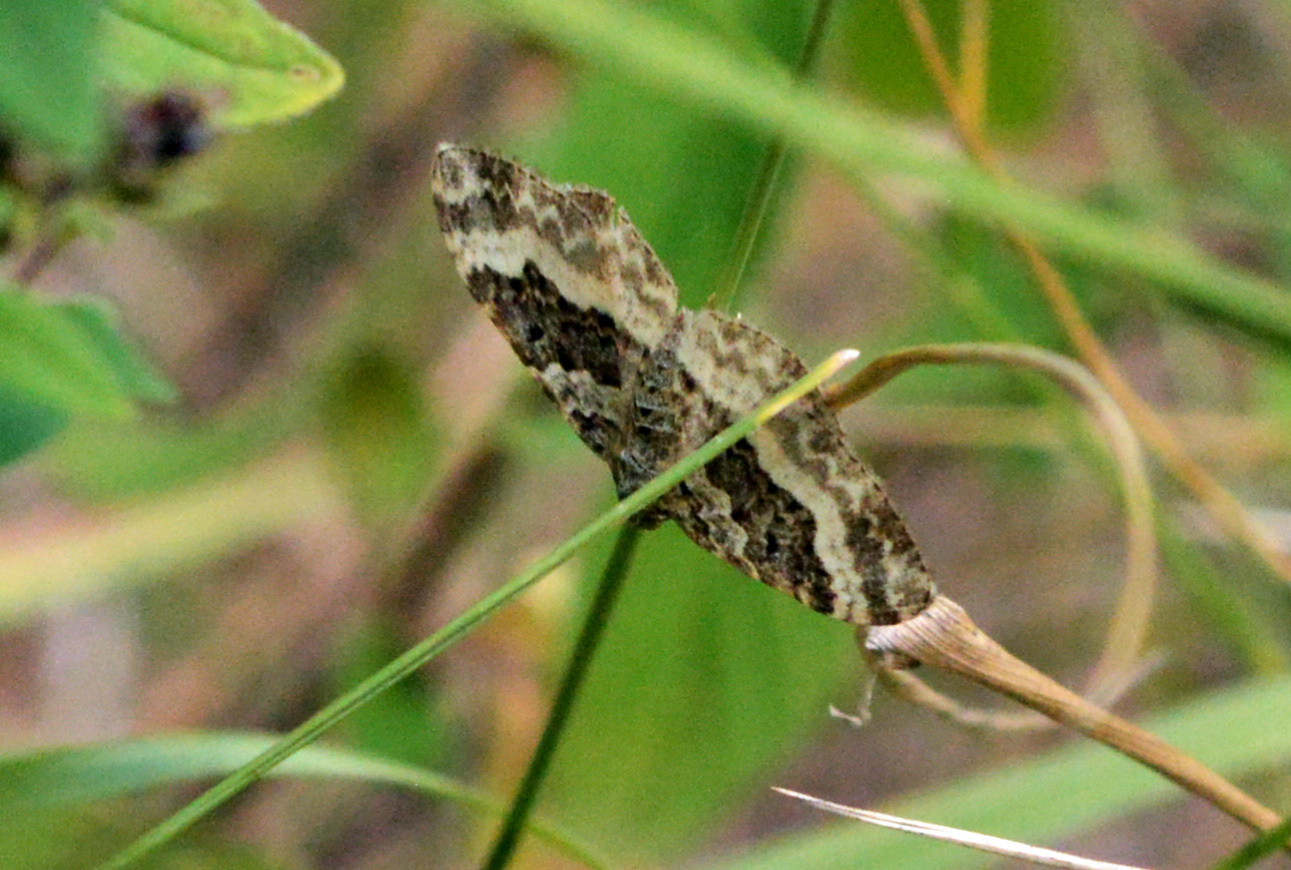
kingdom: Animalia
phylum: Arthropoda
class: Insecta
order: Lepidoptera
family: Geometridae
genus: Epirrhoe
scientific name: Epirrhoe alternata
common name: Common carpet
